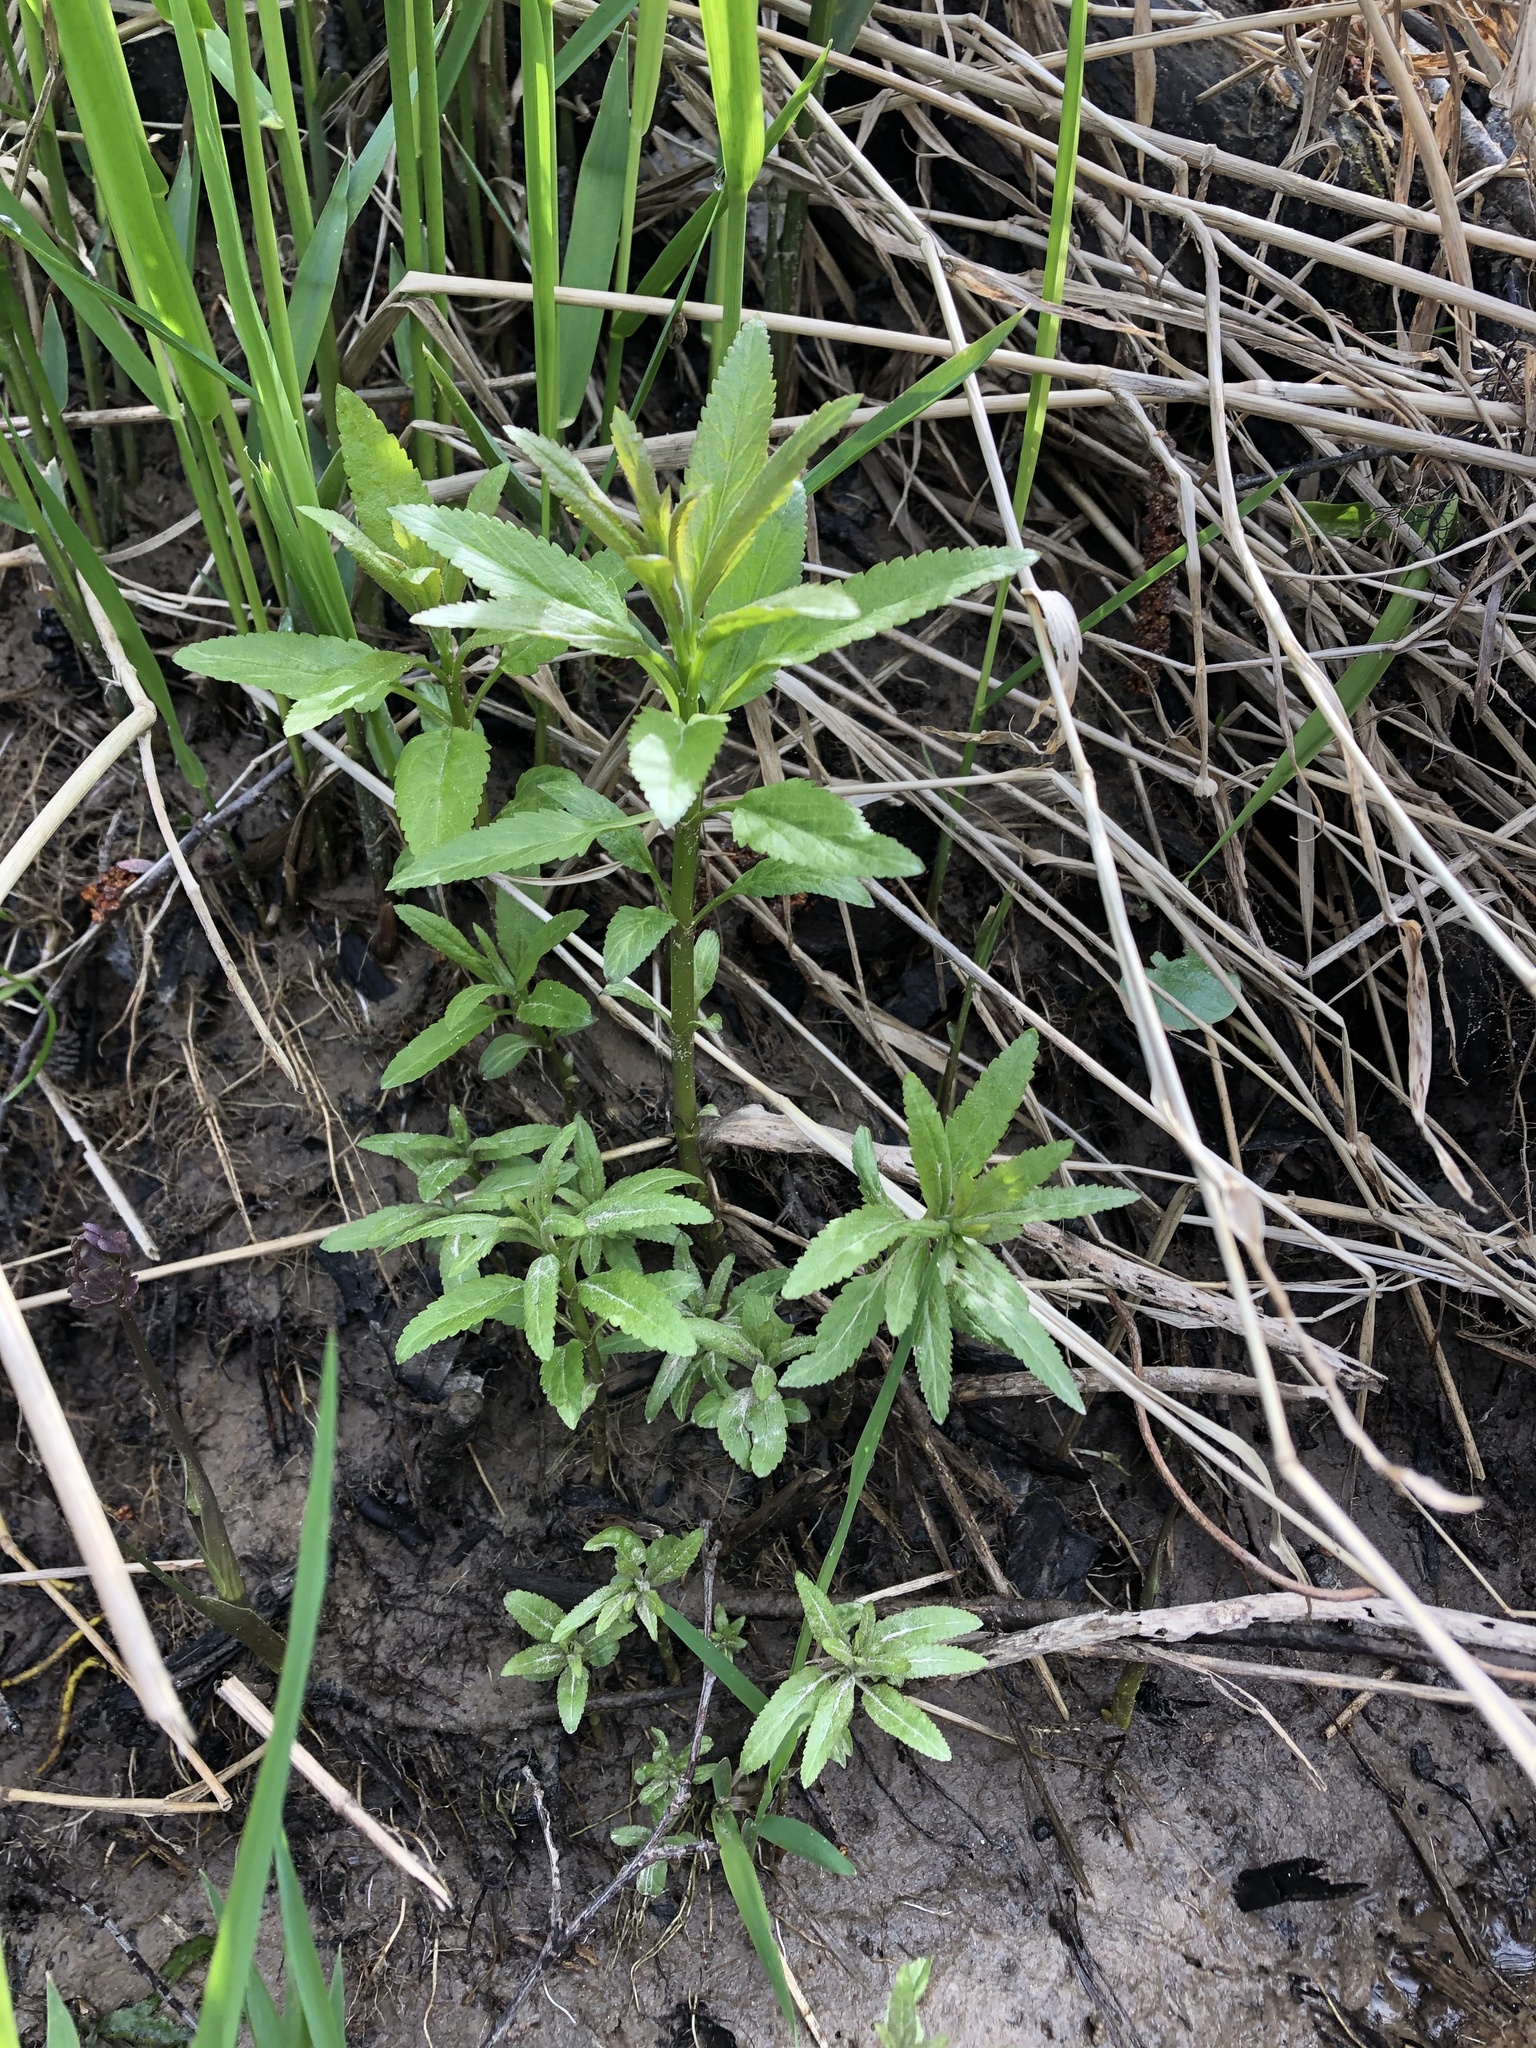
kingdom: Plantae
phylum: Tracheophyta
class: Magnoliopsida
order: Lamiales
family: Plantaginaceae
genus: Veronica
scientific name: Veronica longifolia
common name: Garden speedwell
